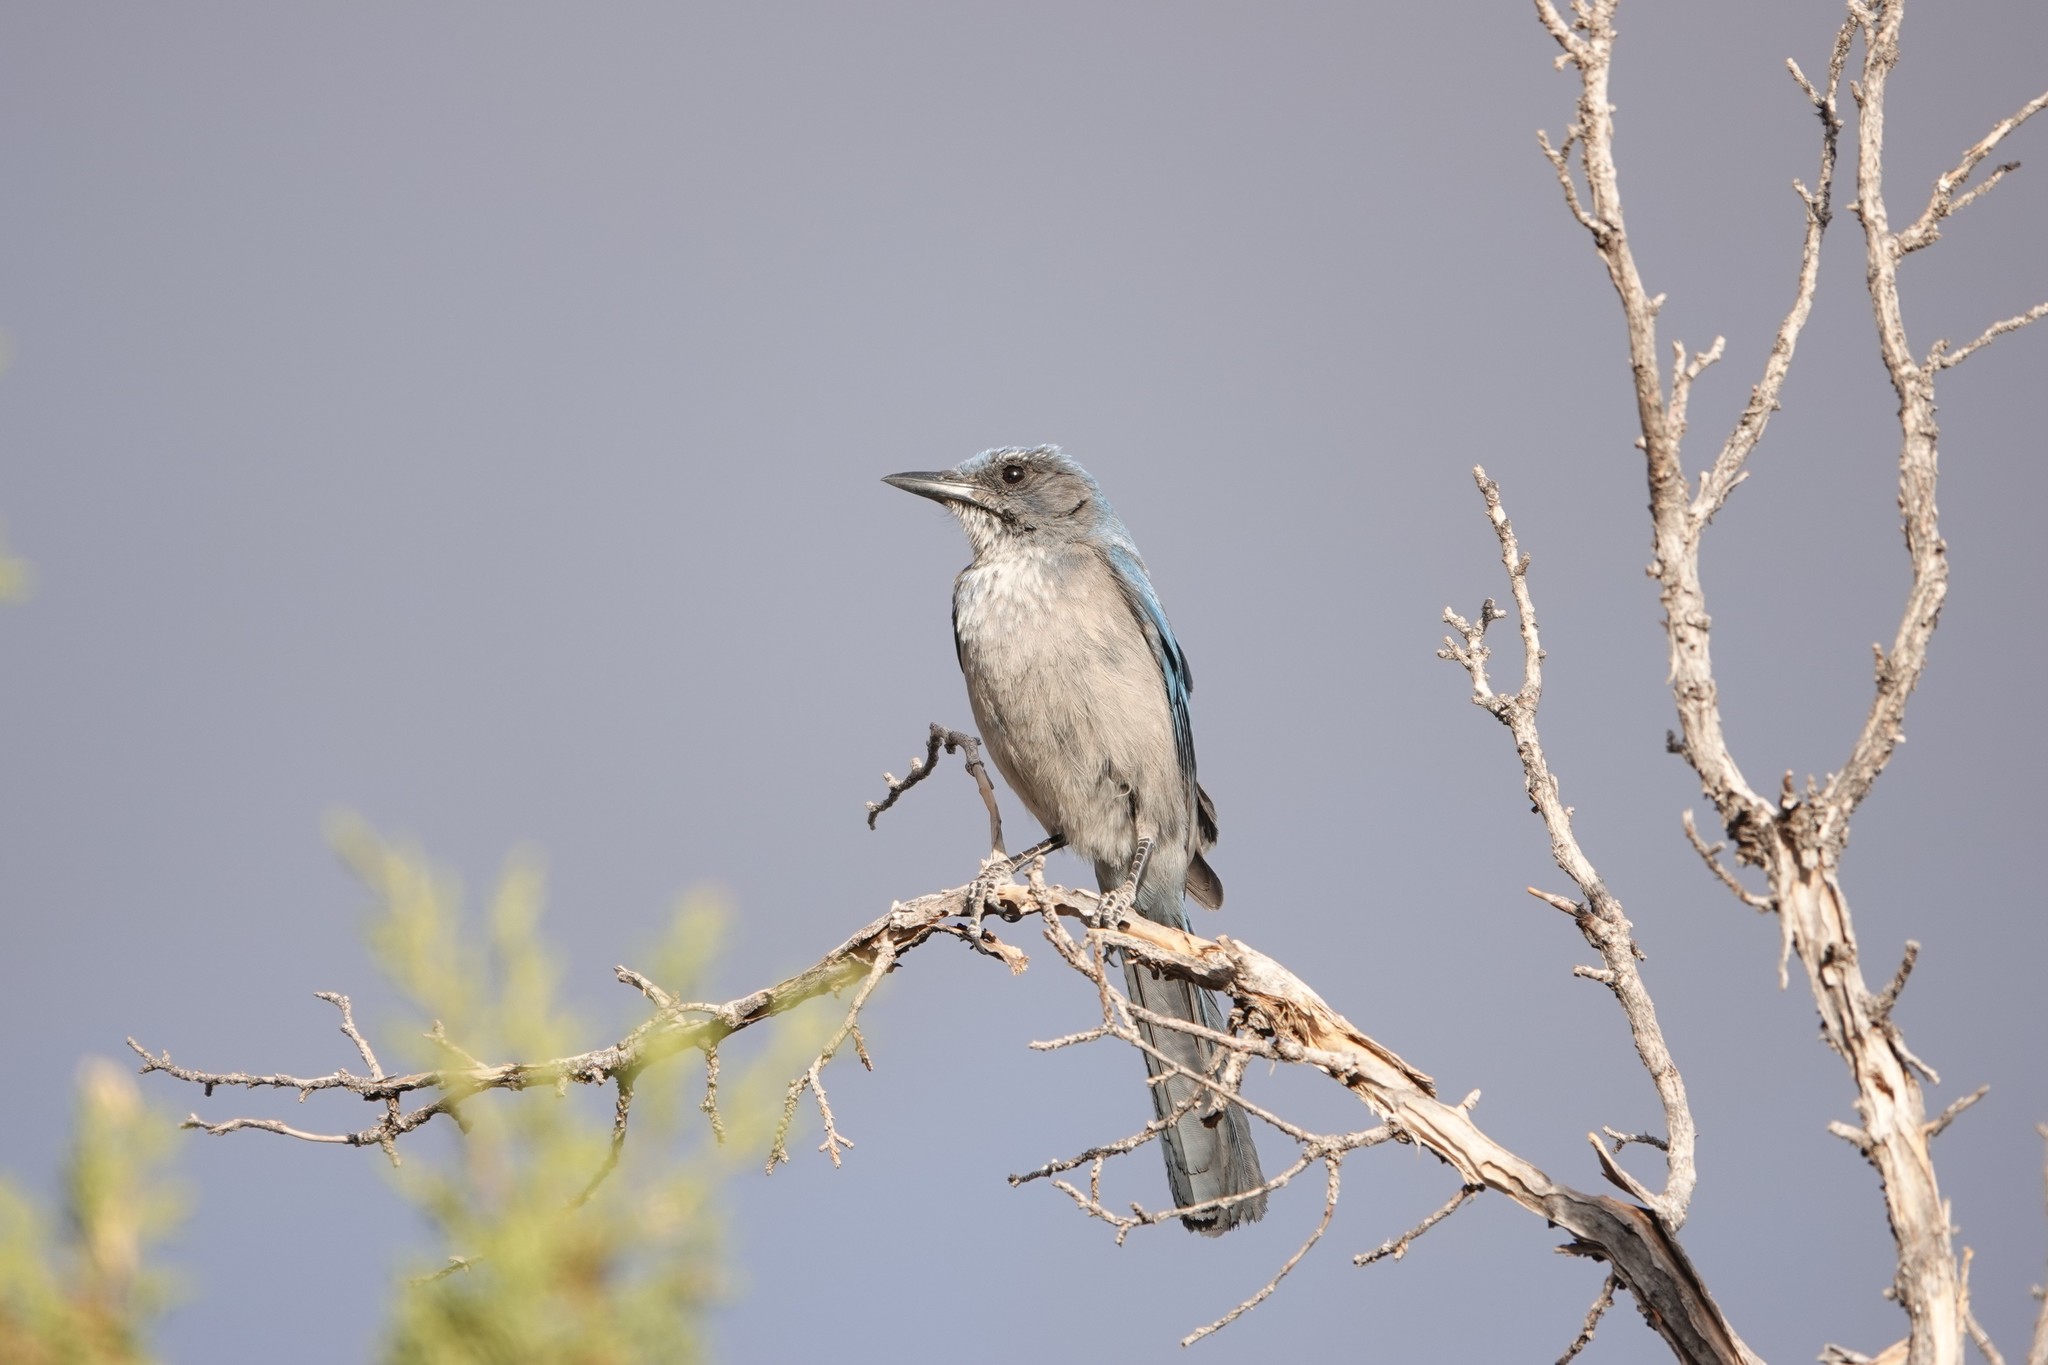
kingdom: Animalia
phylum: Chordata
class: Aves
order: Passeriformes
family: Corvidae
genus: Aphelocoma
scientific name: Aphelocoma woodhouseii
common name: Woodhouse's scrub-jay
